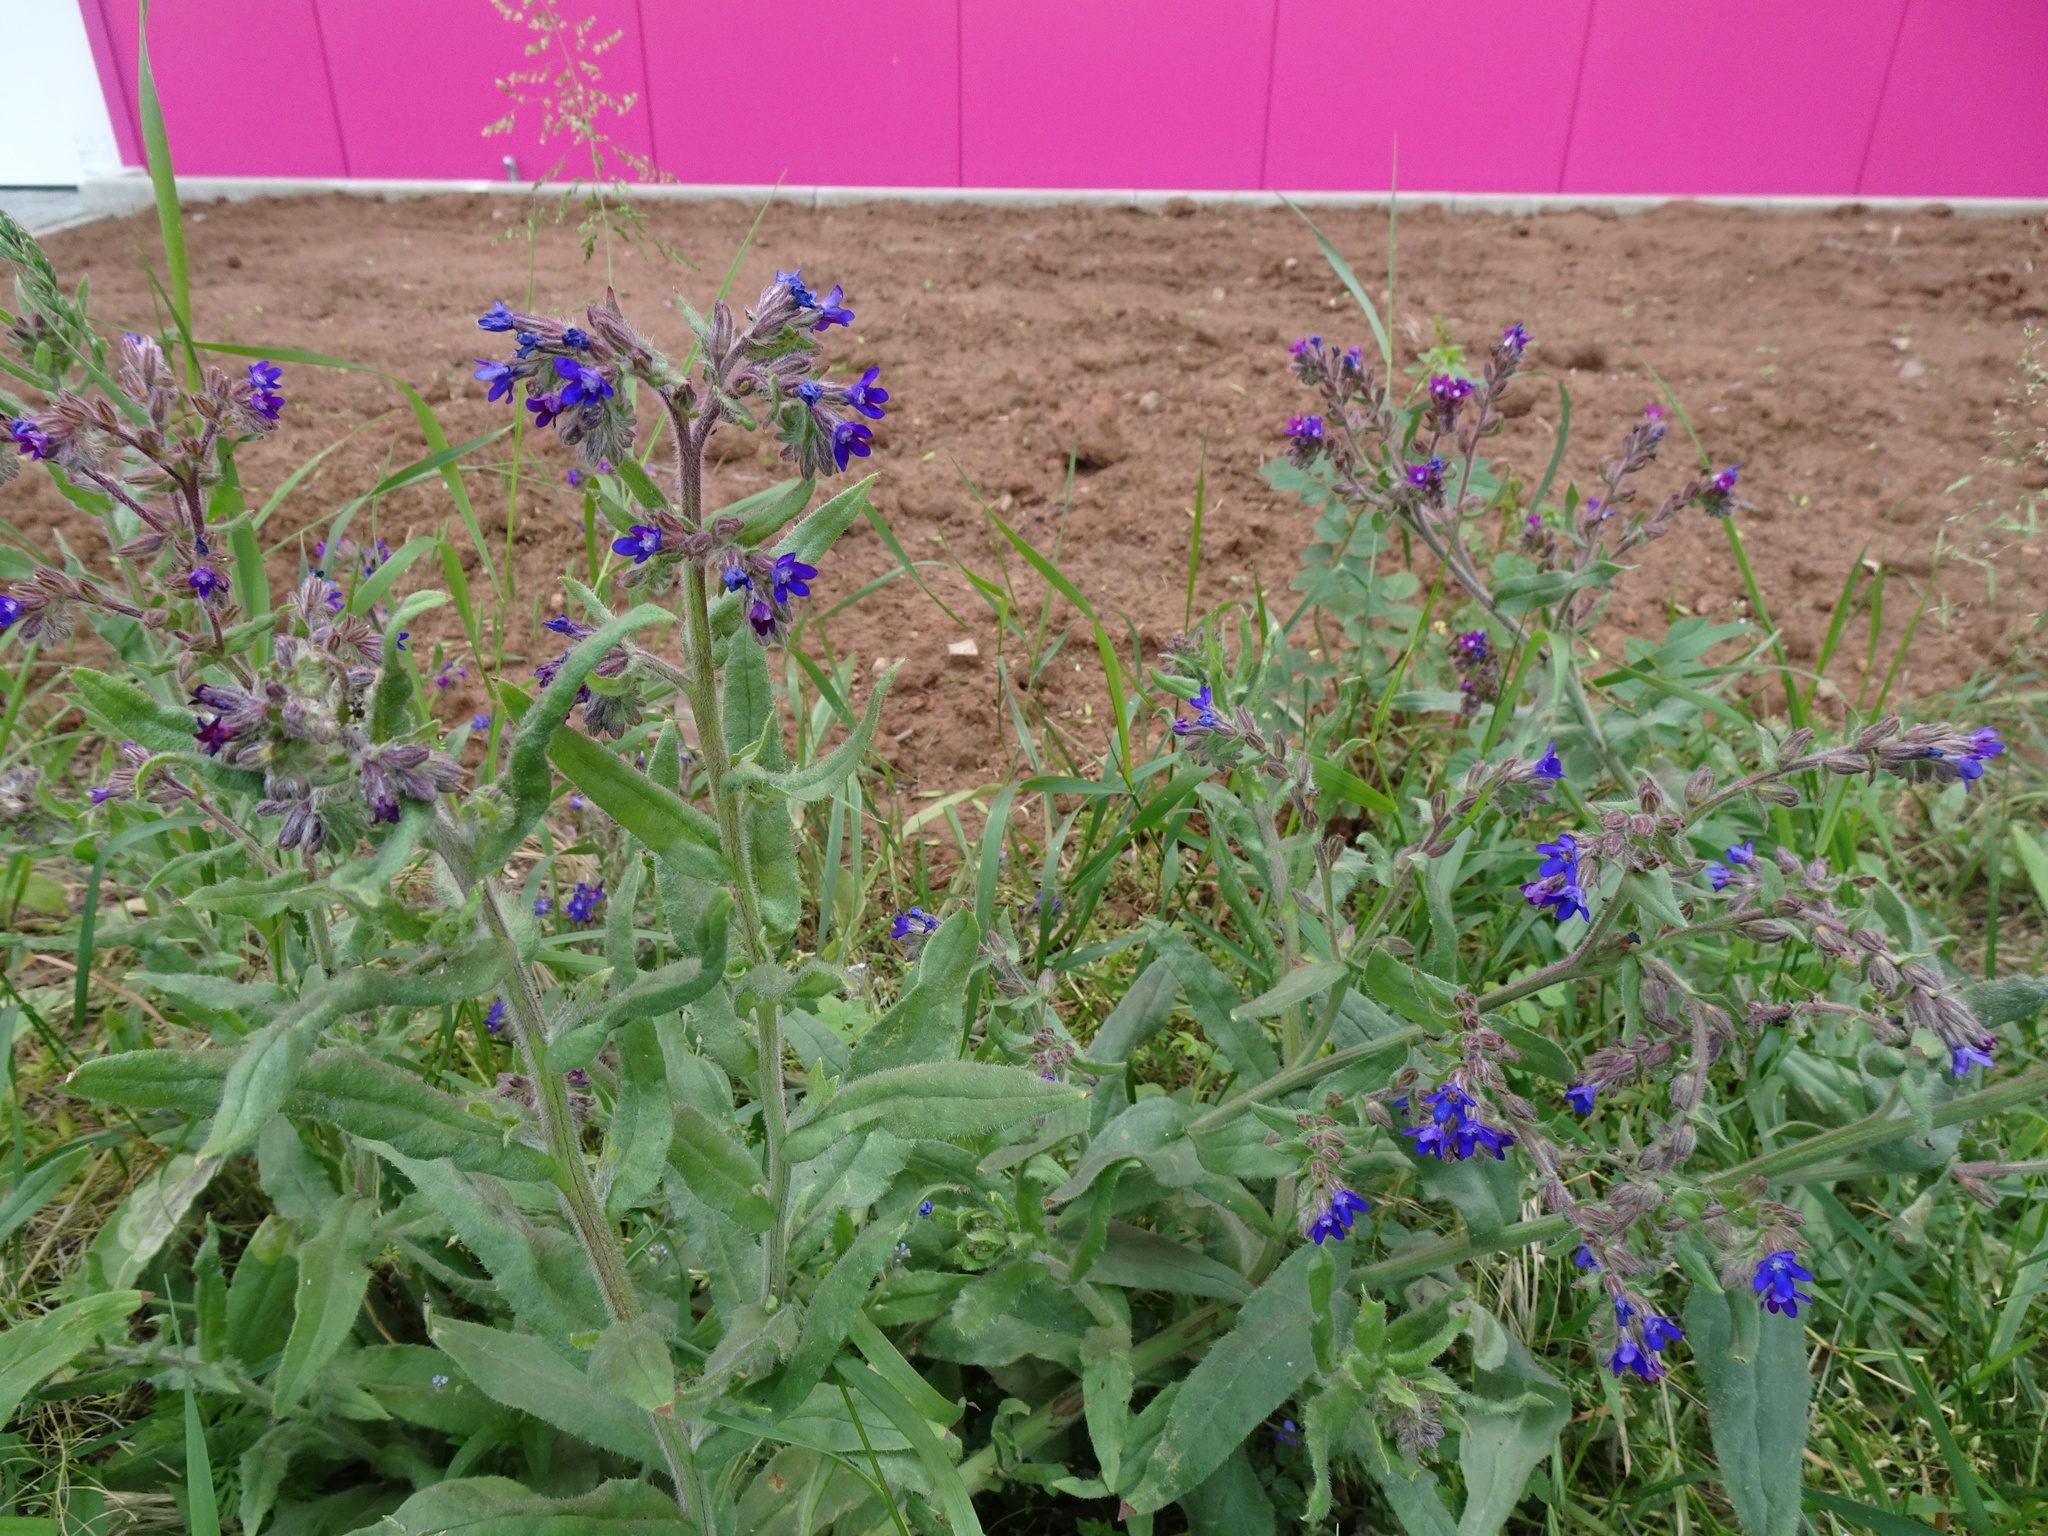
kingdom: Plantae
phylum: Tracheophyta
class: Magnoliopsida
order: Boraginales
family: Boraginaceae
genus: Anchusa
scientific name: Anchusa officinalis
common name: Alkanet
